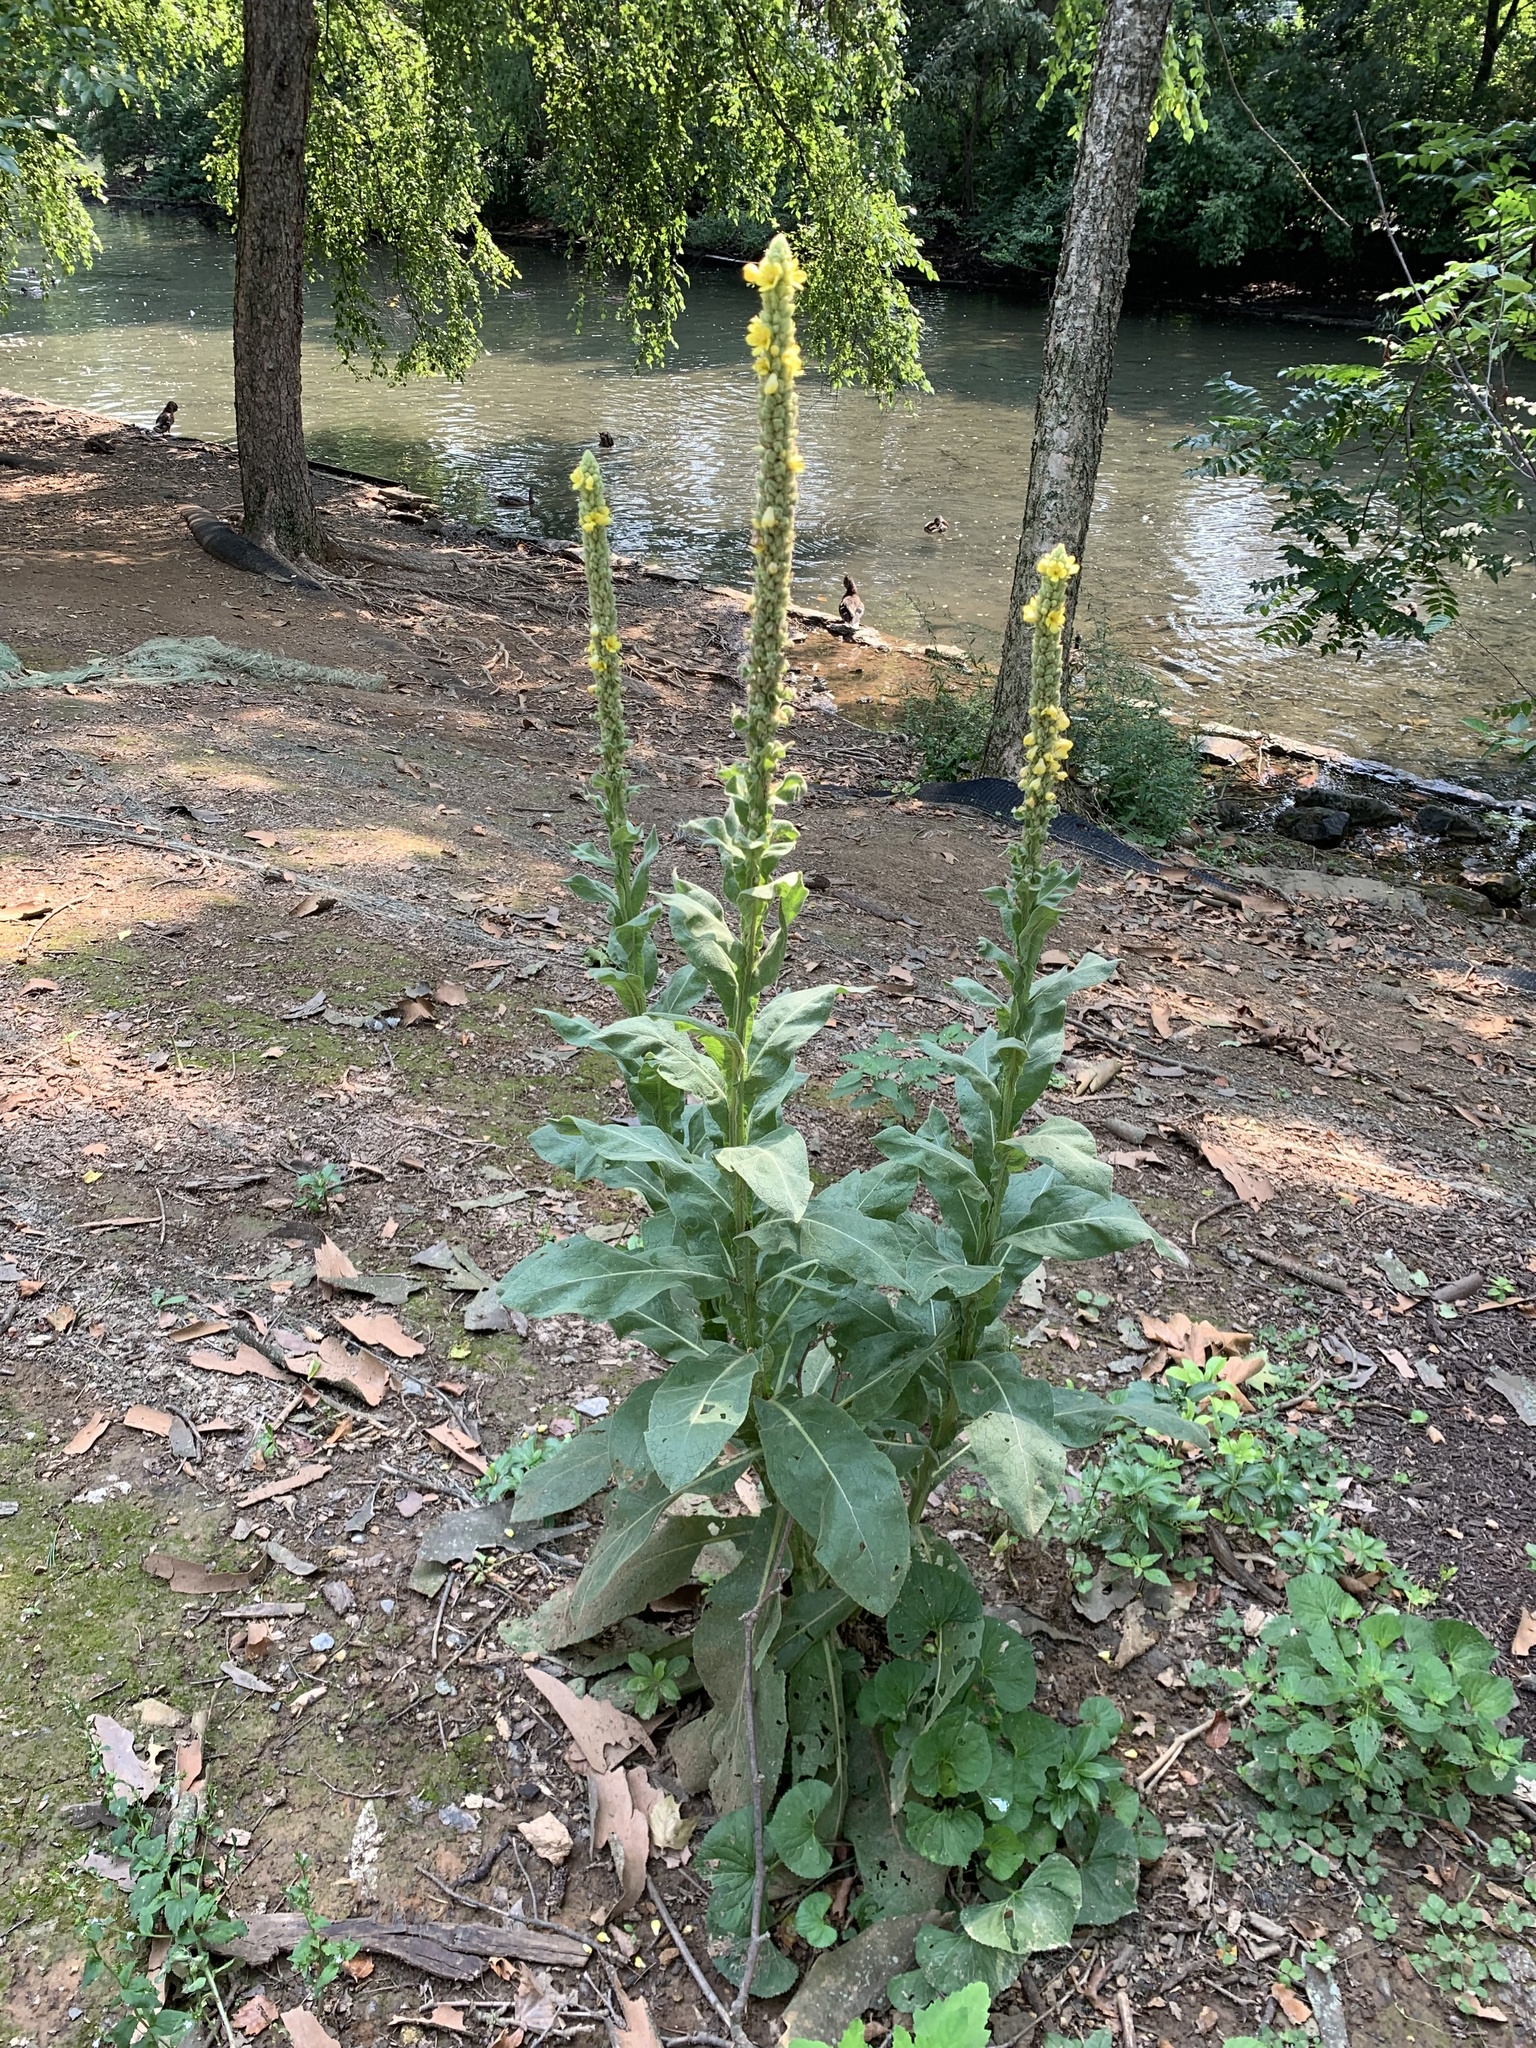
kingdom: Plantae
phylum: Tracheophyta
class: Magnoliopsida
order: Lamiales
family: Scrophulariaceae
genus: Verbascum
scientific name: Verbascum thapsus
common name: Common mullein
